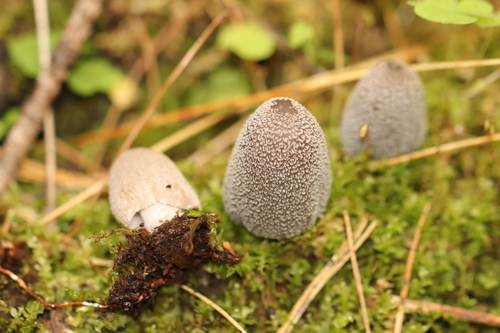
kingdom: Fungi
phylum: Basidiomycota
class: Agaricomycetes
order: Agaricales
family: Psathyrellaceae
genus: Coprinopsis
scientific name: Coprinopsis jonesii
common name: Bonfire inkcap
